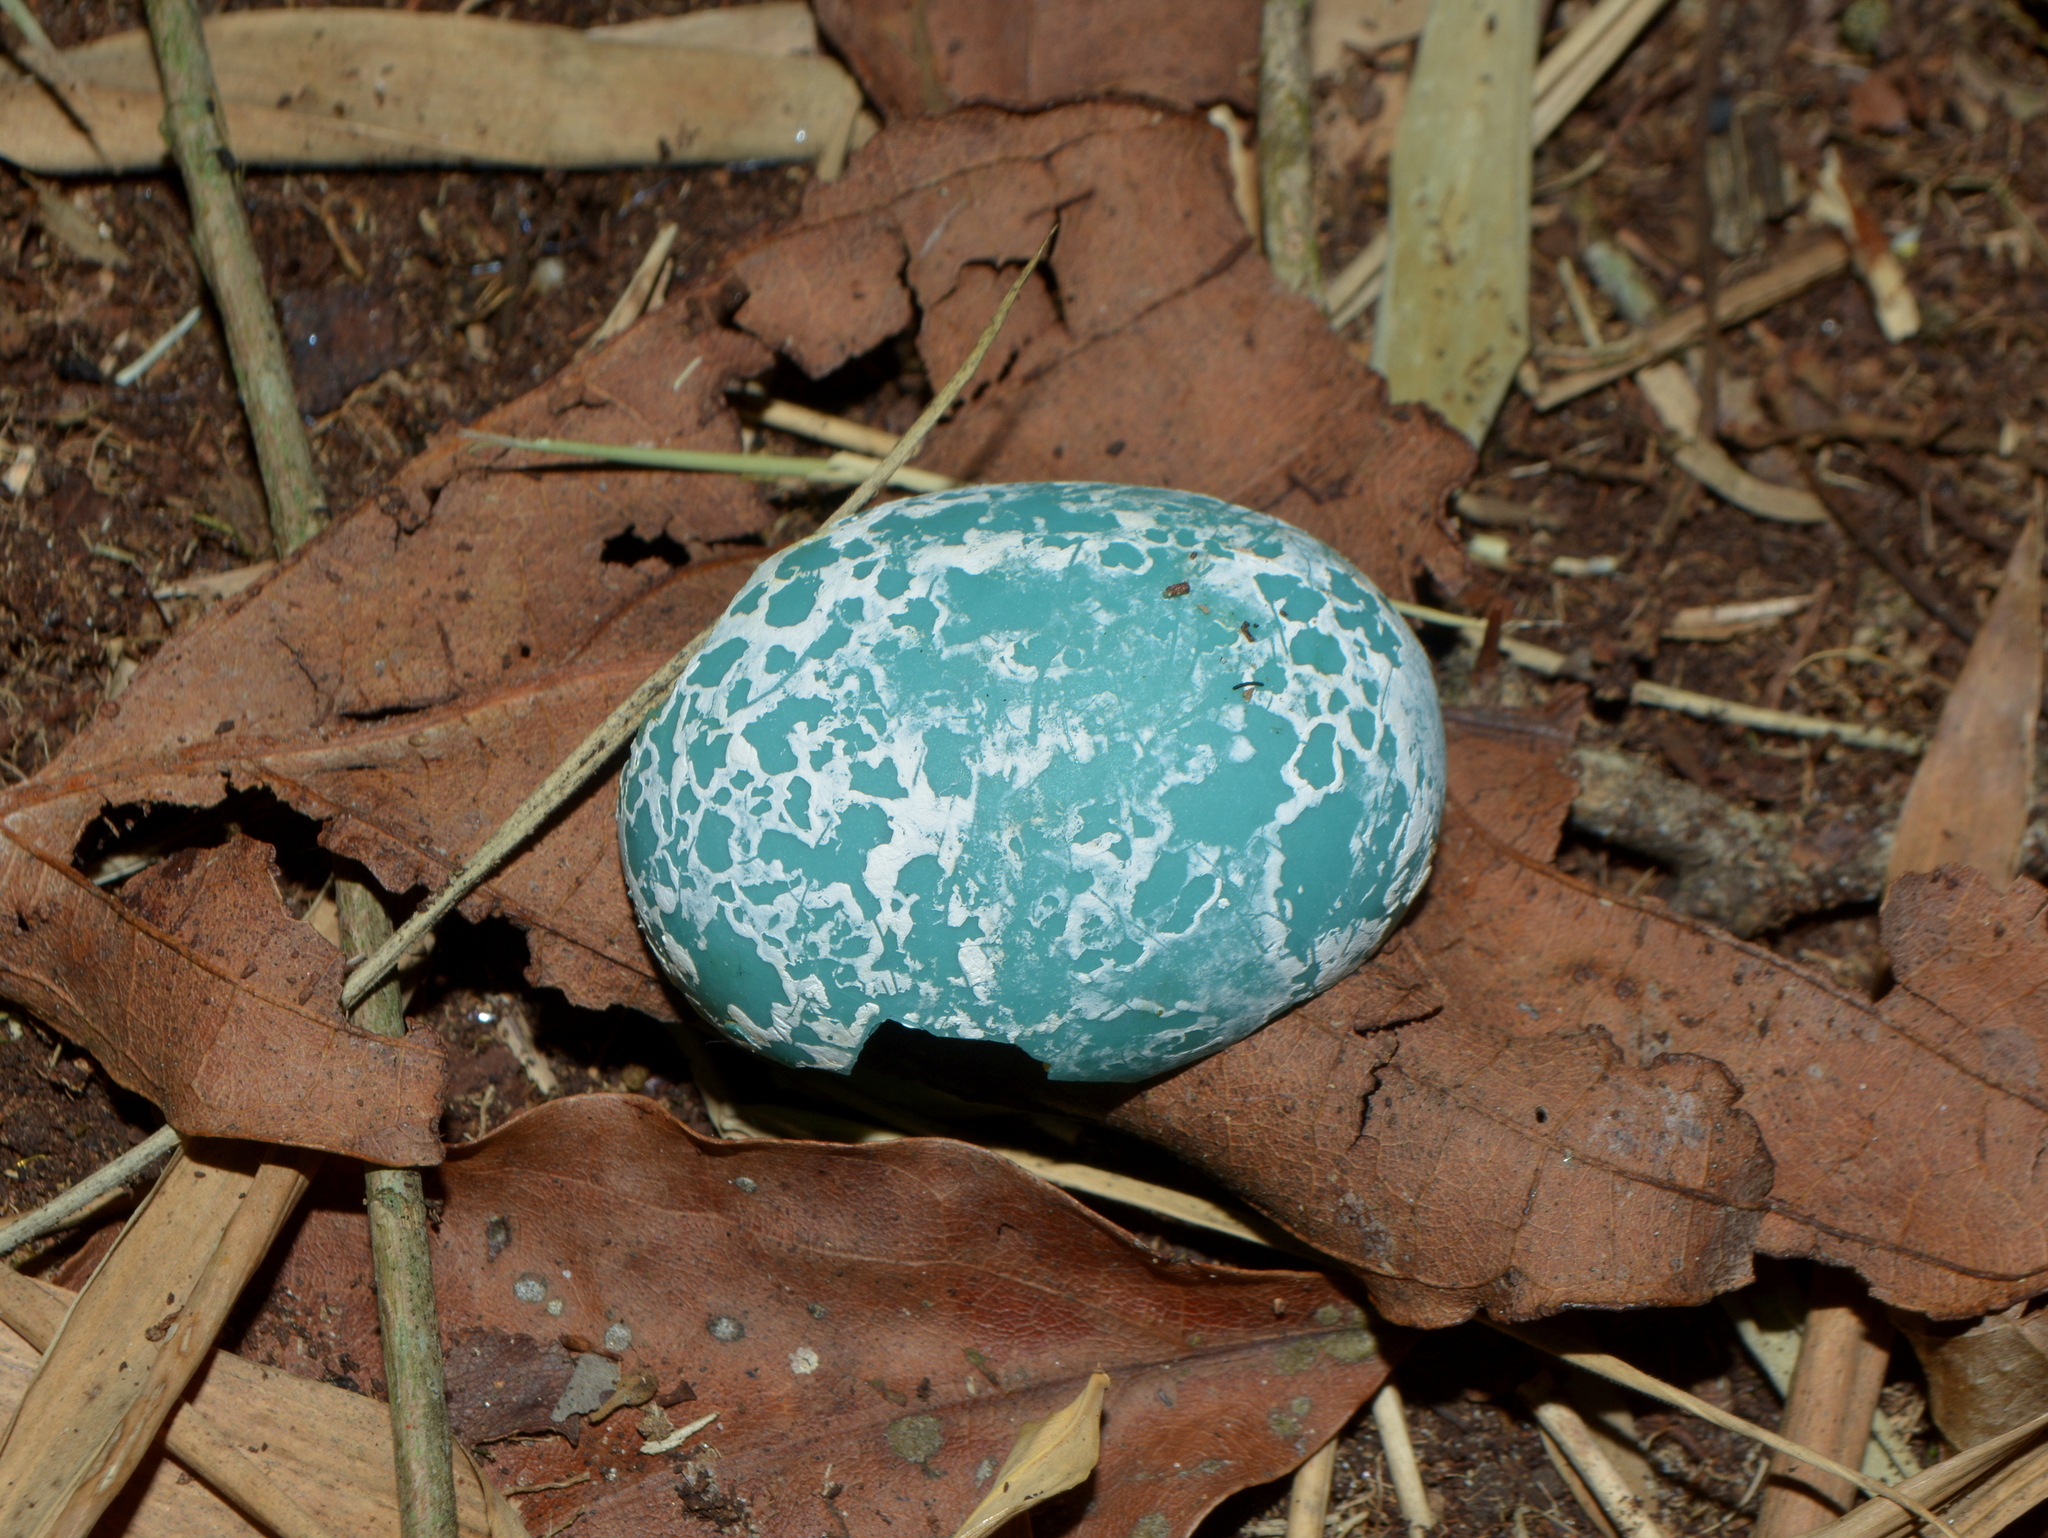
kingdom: Animalia
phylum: Chordata
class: Aves
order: Cuculiformes
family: Cuculidae
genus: Guira
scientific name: Guira guira
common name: Guira cuckoo
